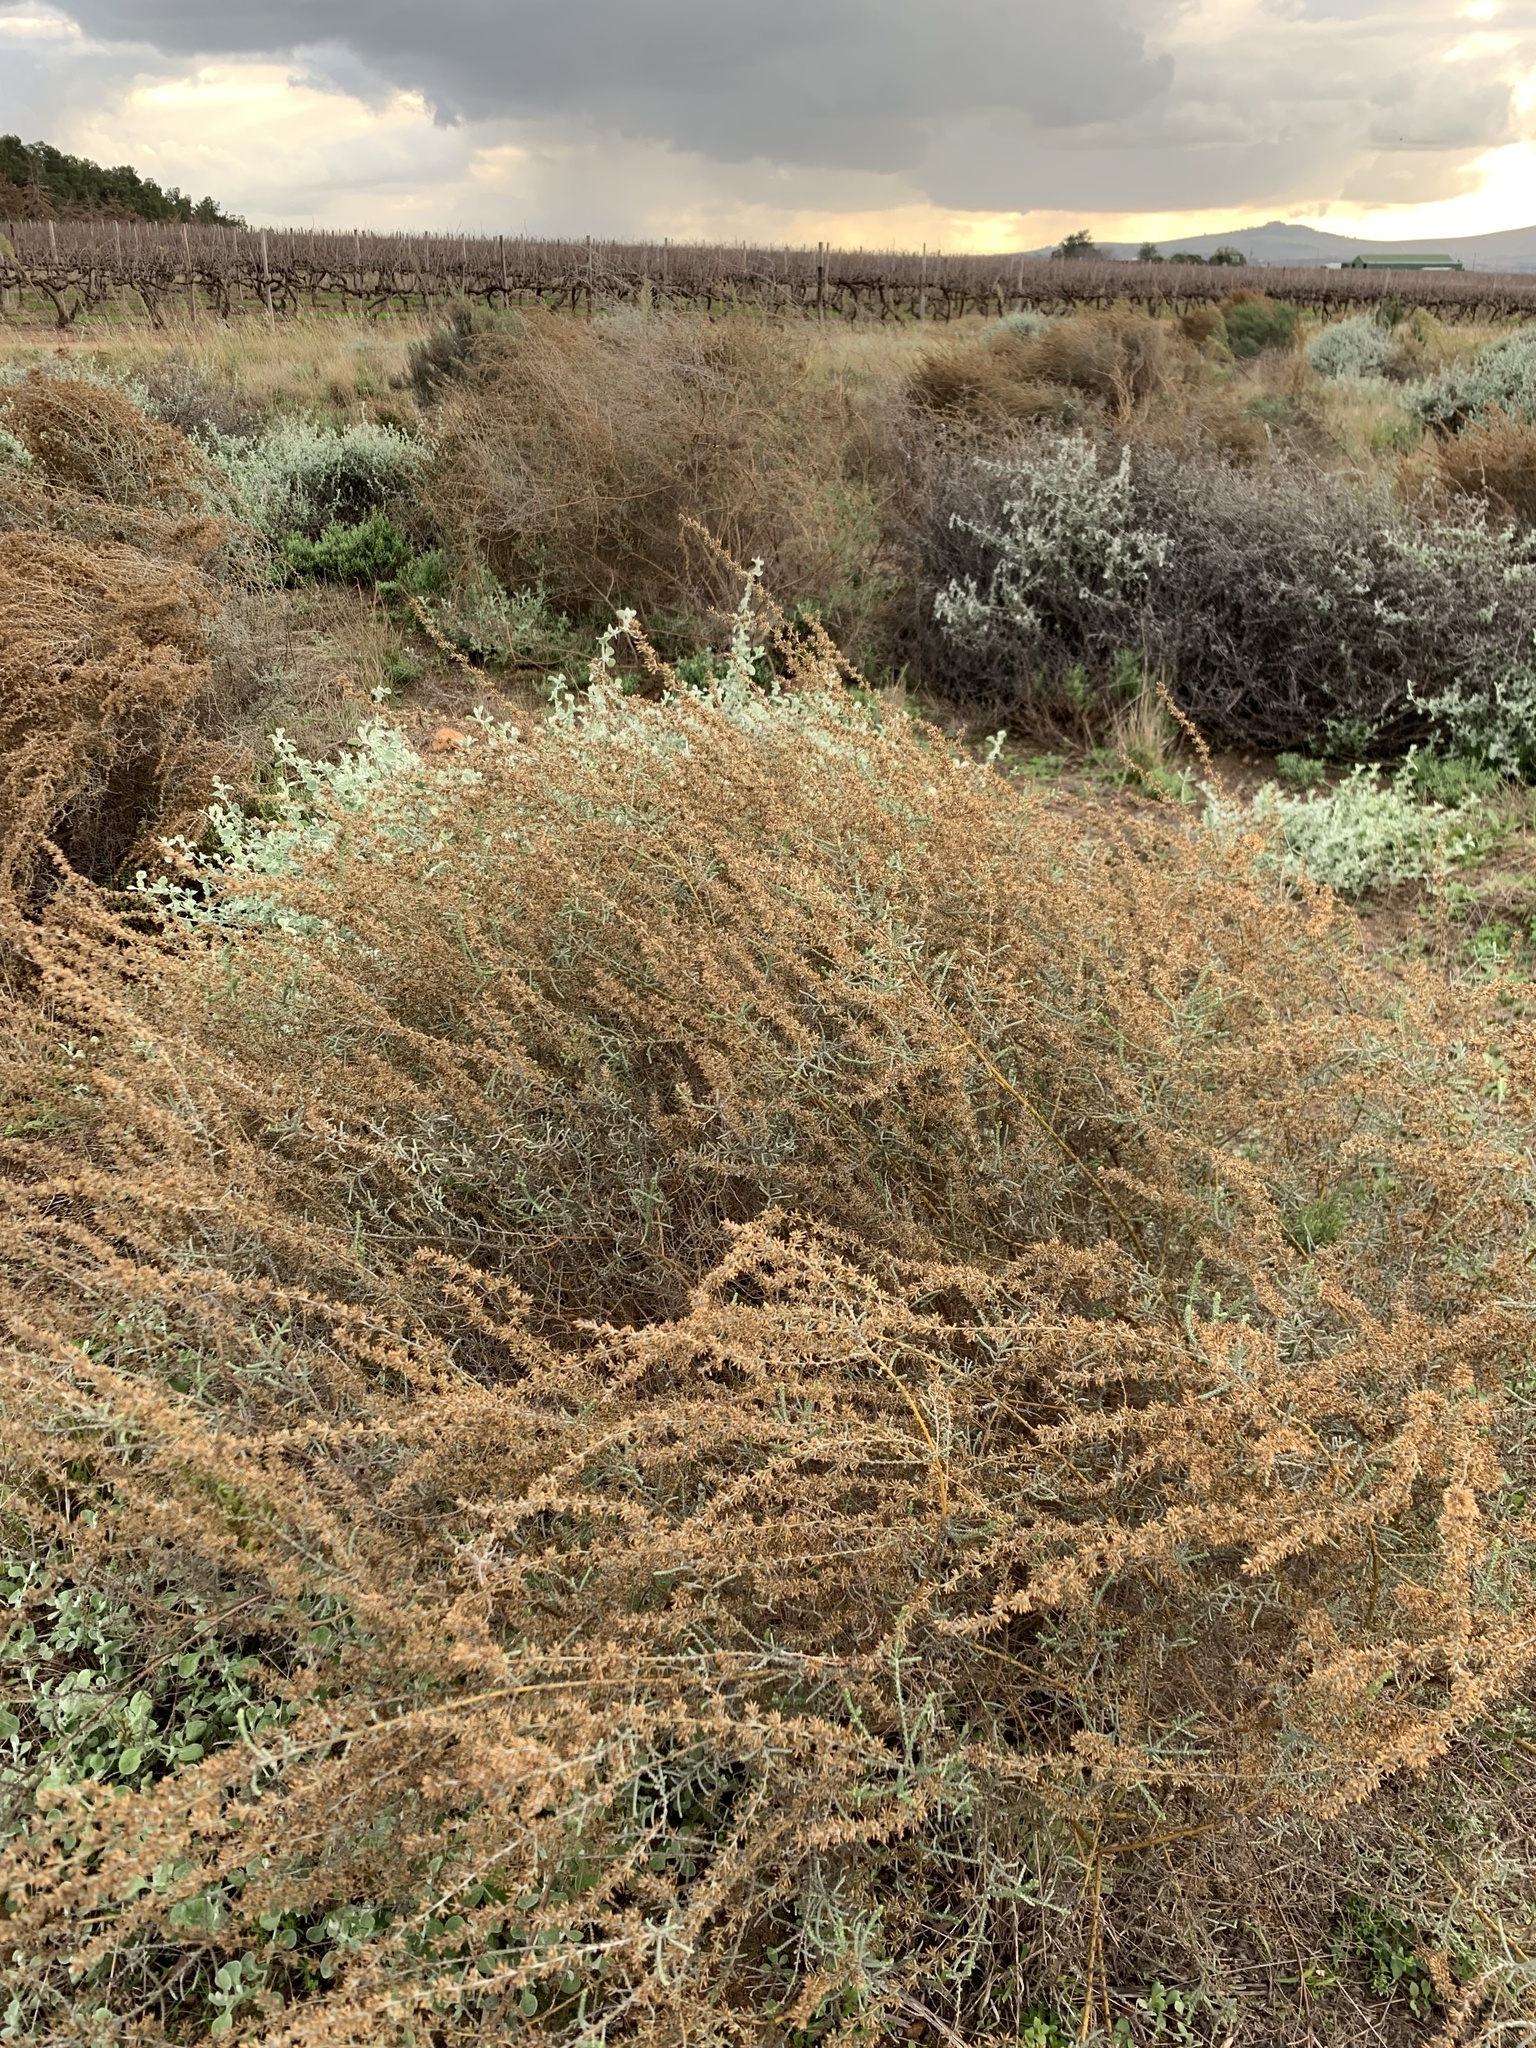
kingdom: Plantae
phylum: Tracheophyta
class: Magnoliopsida
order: Asterales
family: Asteraceae
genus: Seriphium
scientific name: Seriphium plumosum
